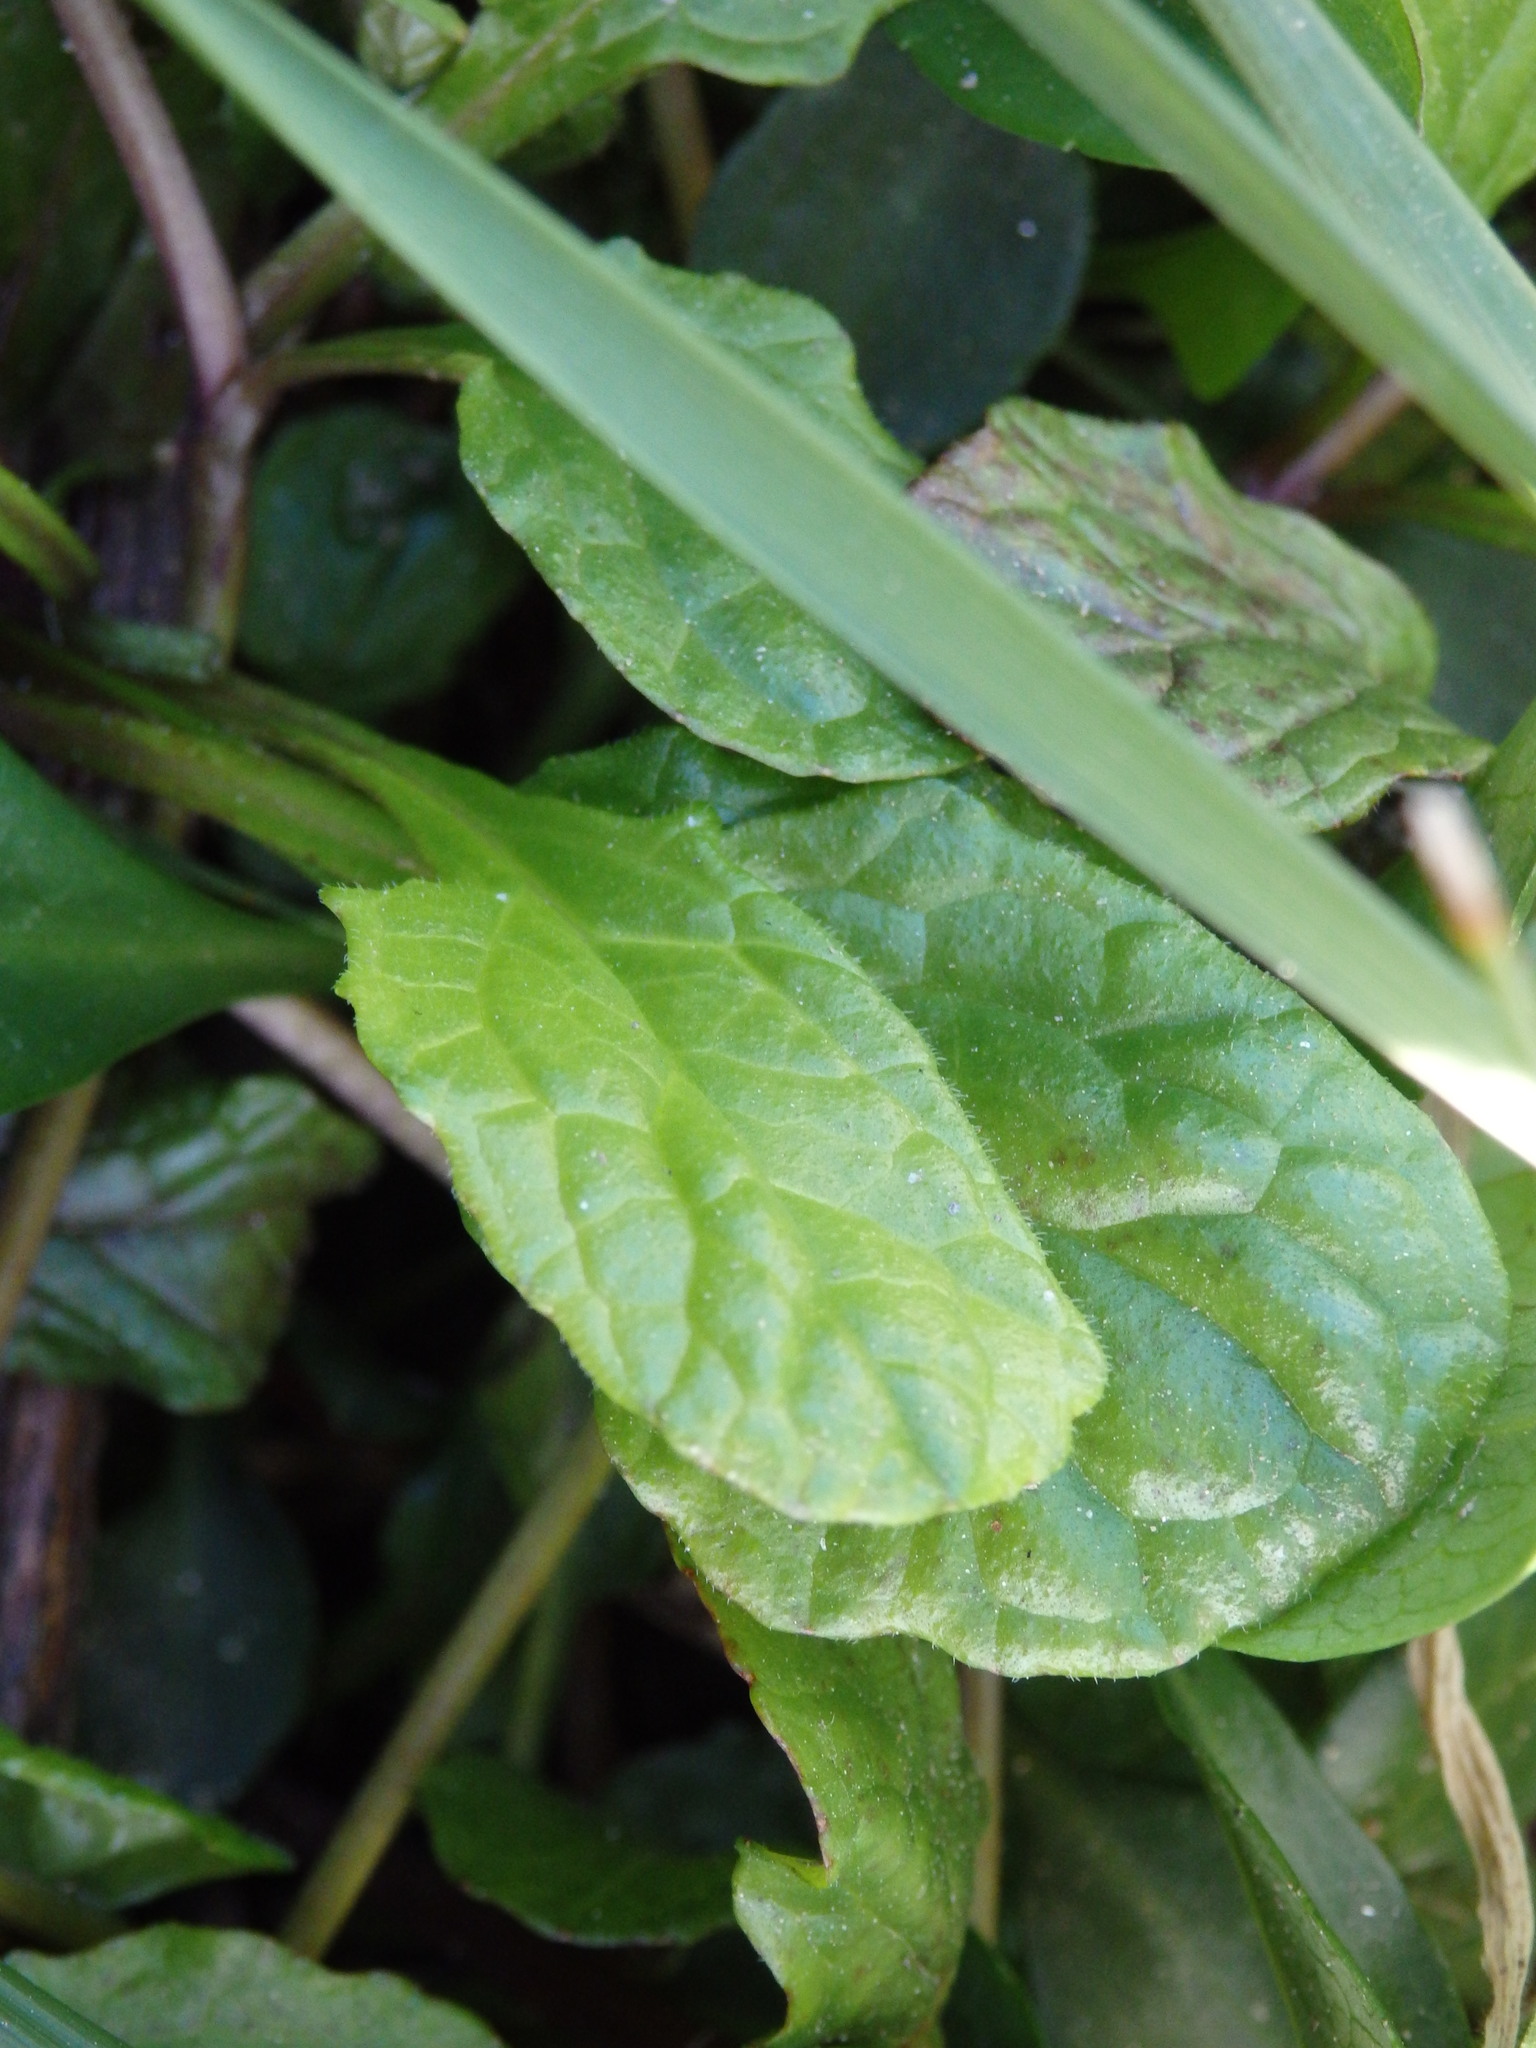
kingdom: Plantae
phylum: Tracheophyta
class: Magnoliopsida
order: Lamiales
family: Lamiaceae
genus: Ajuga
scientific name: Ajuga reptans
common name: Bugle
